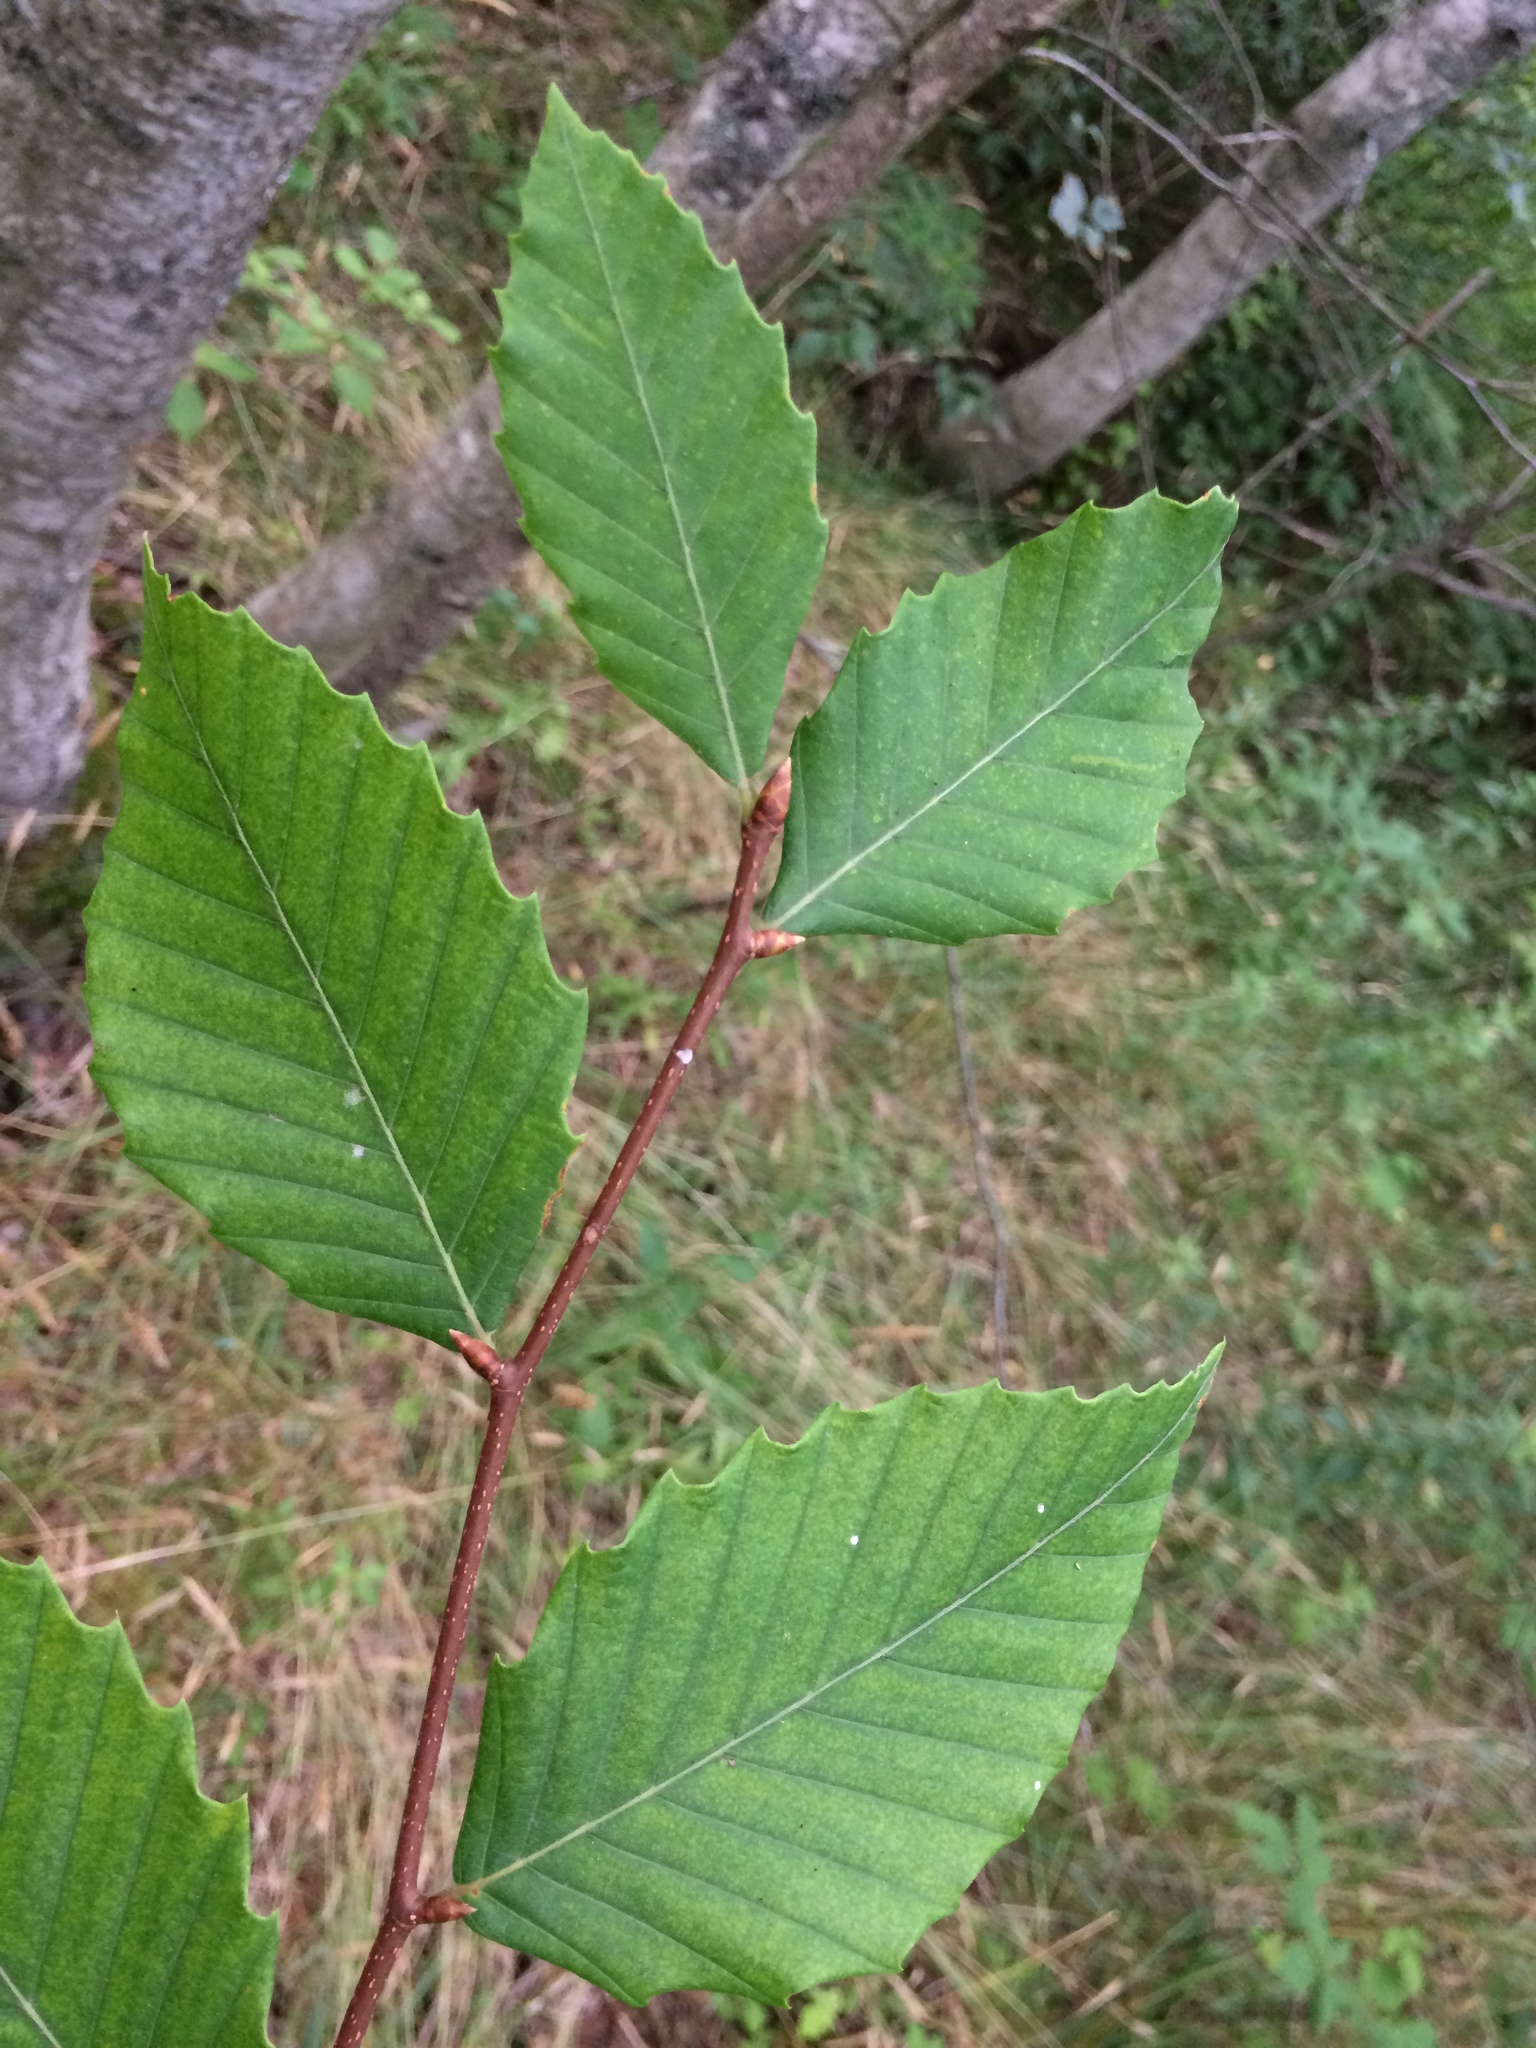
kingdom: Plantae
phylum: Tracheophyta
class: Magnoliopsida
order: Fagales
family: Fagaceae
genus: Fagus
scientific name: Fagus grandifolia
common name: American beech
